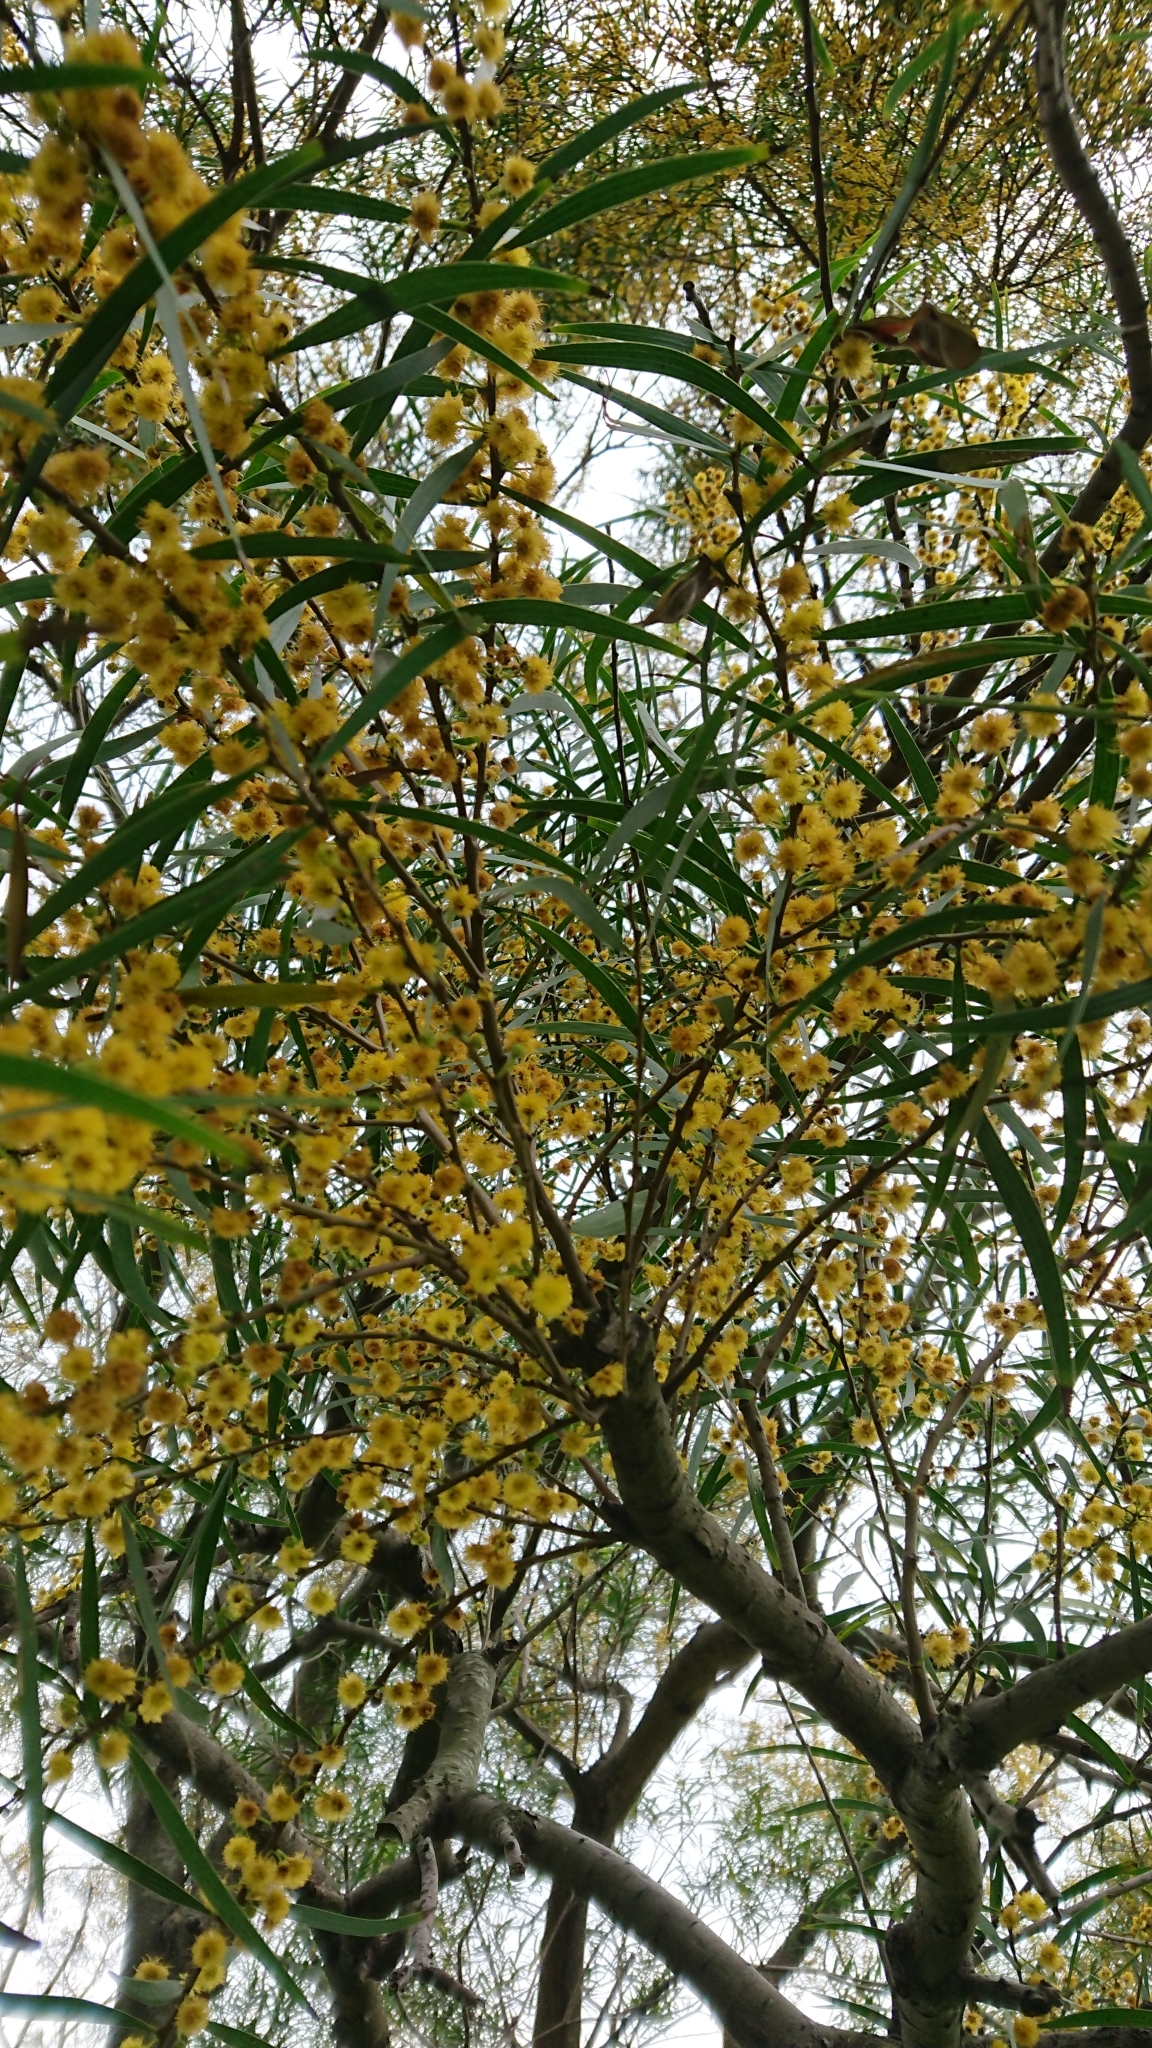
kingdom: Plantae
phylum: Tracheophyta
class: Magnoliopsida
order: Fabales
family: Fabaceae
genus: Acacia
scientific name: Acacia confusa
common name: Formosan koa
